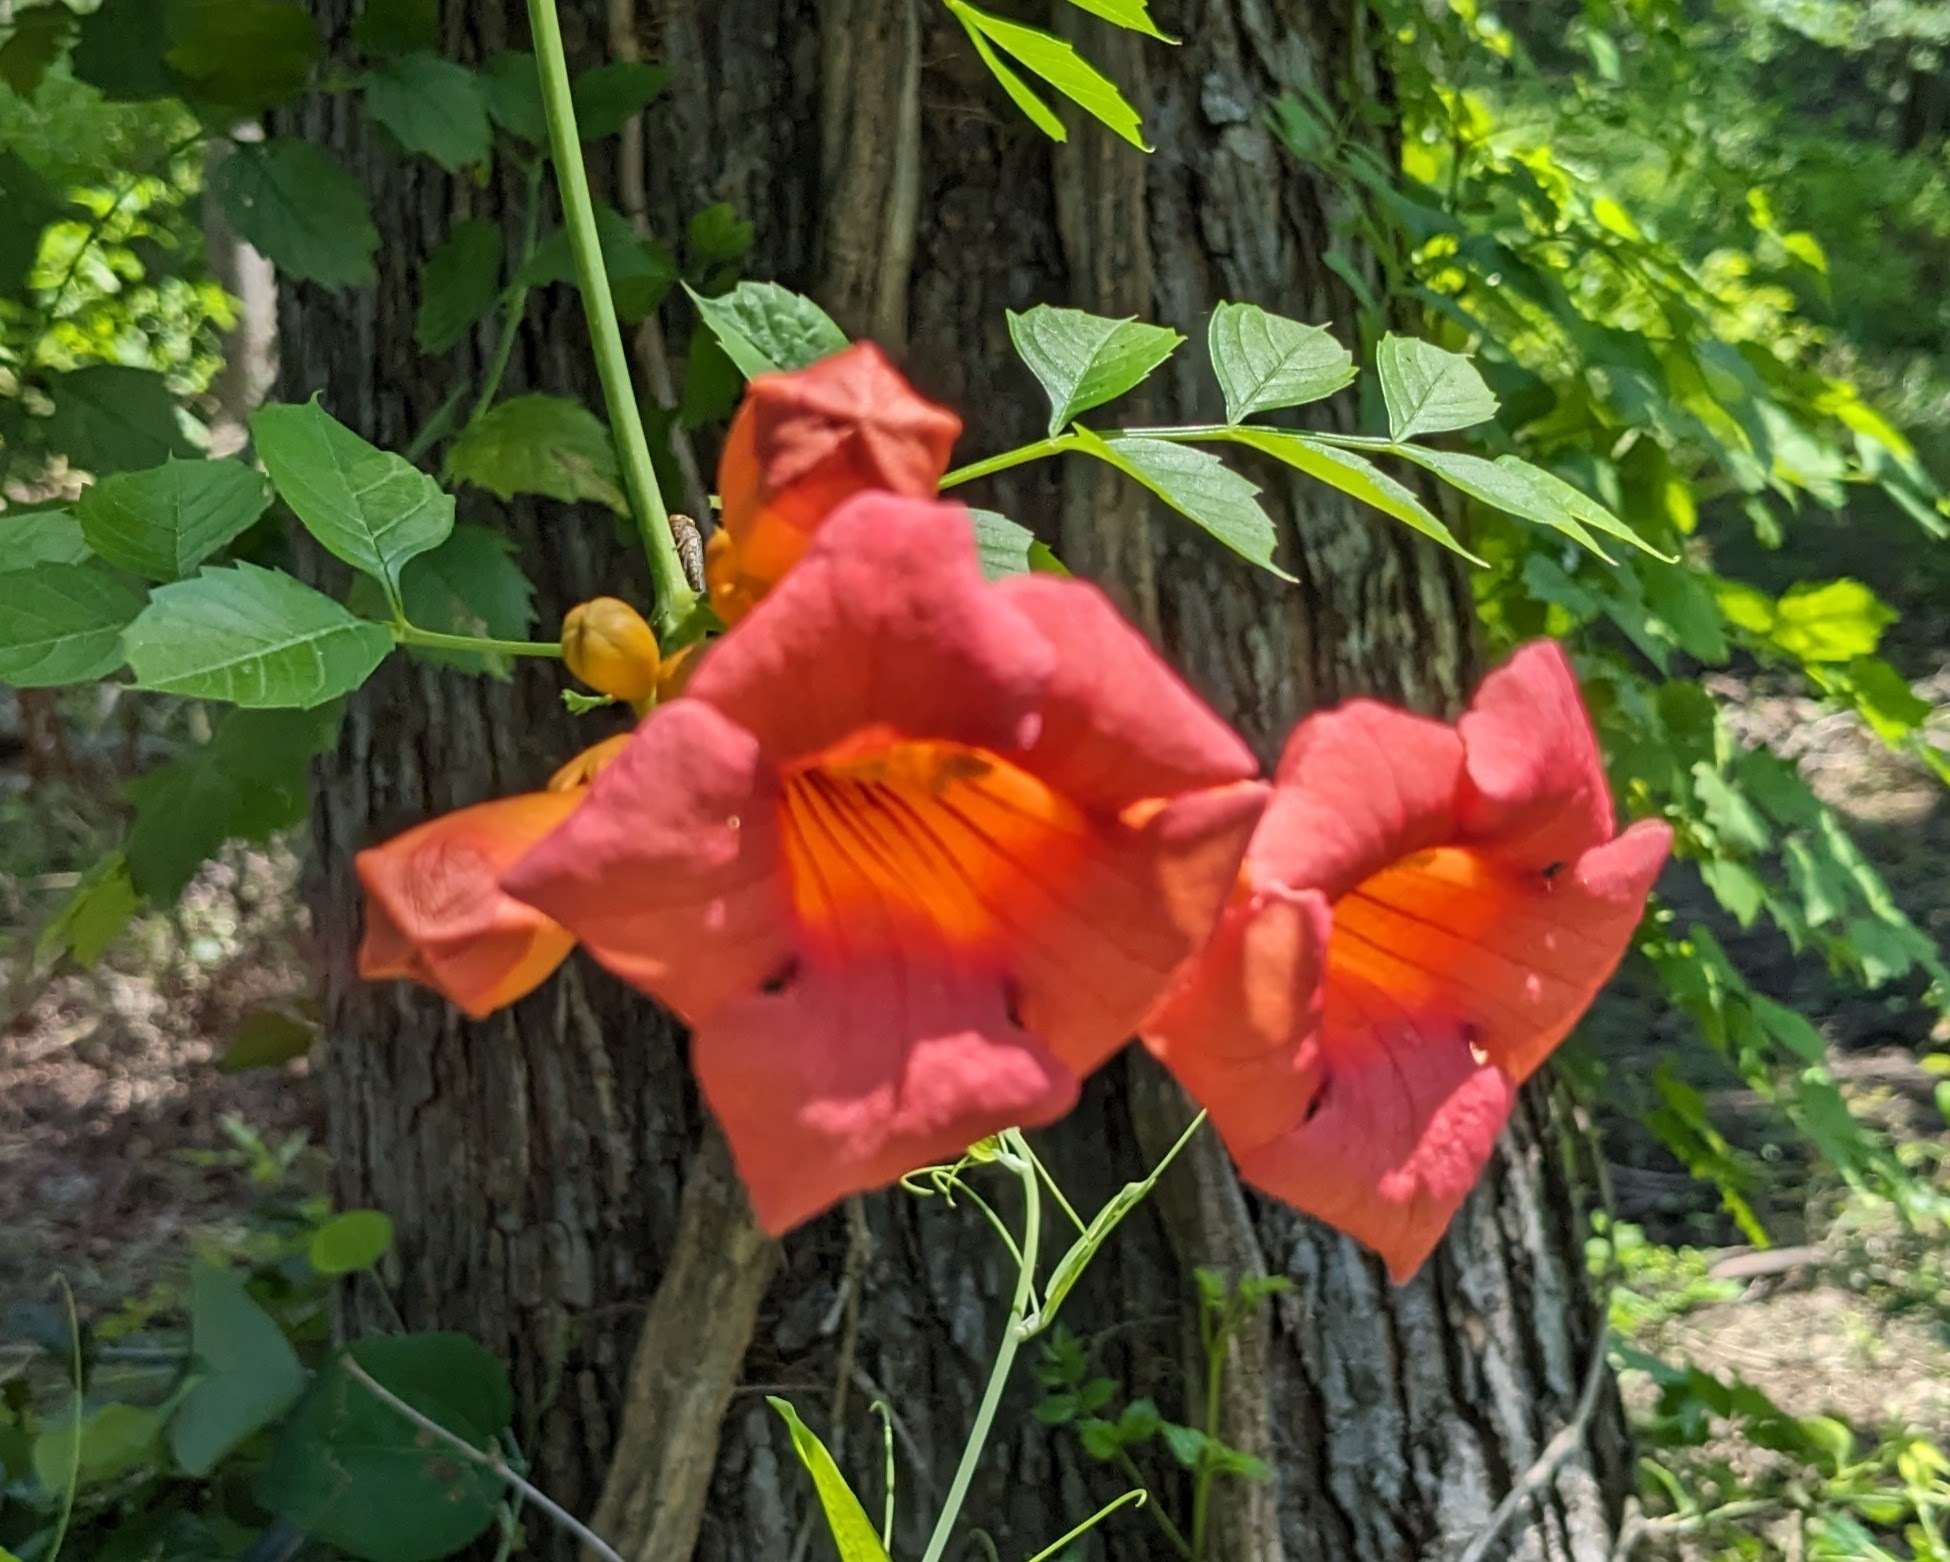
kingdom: Plantae
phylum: Tracheophyta
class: Magnoliopsida
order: Lamiales
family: Bignoniaceae
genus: Campsis
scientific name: Campsis radicans
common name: Trumpet-creeper
